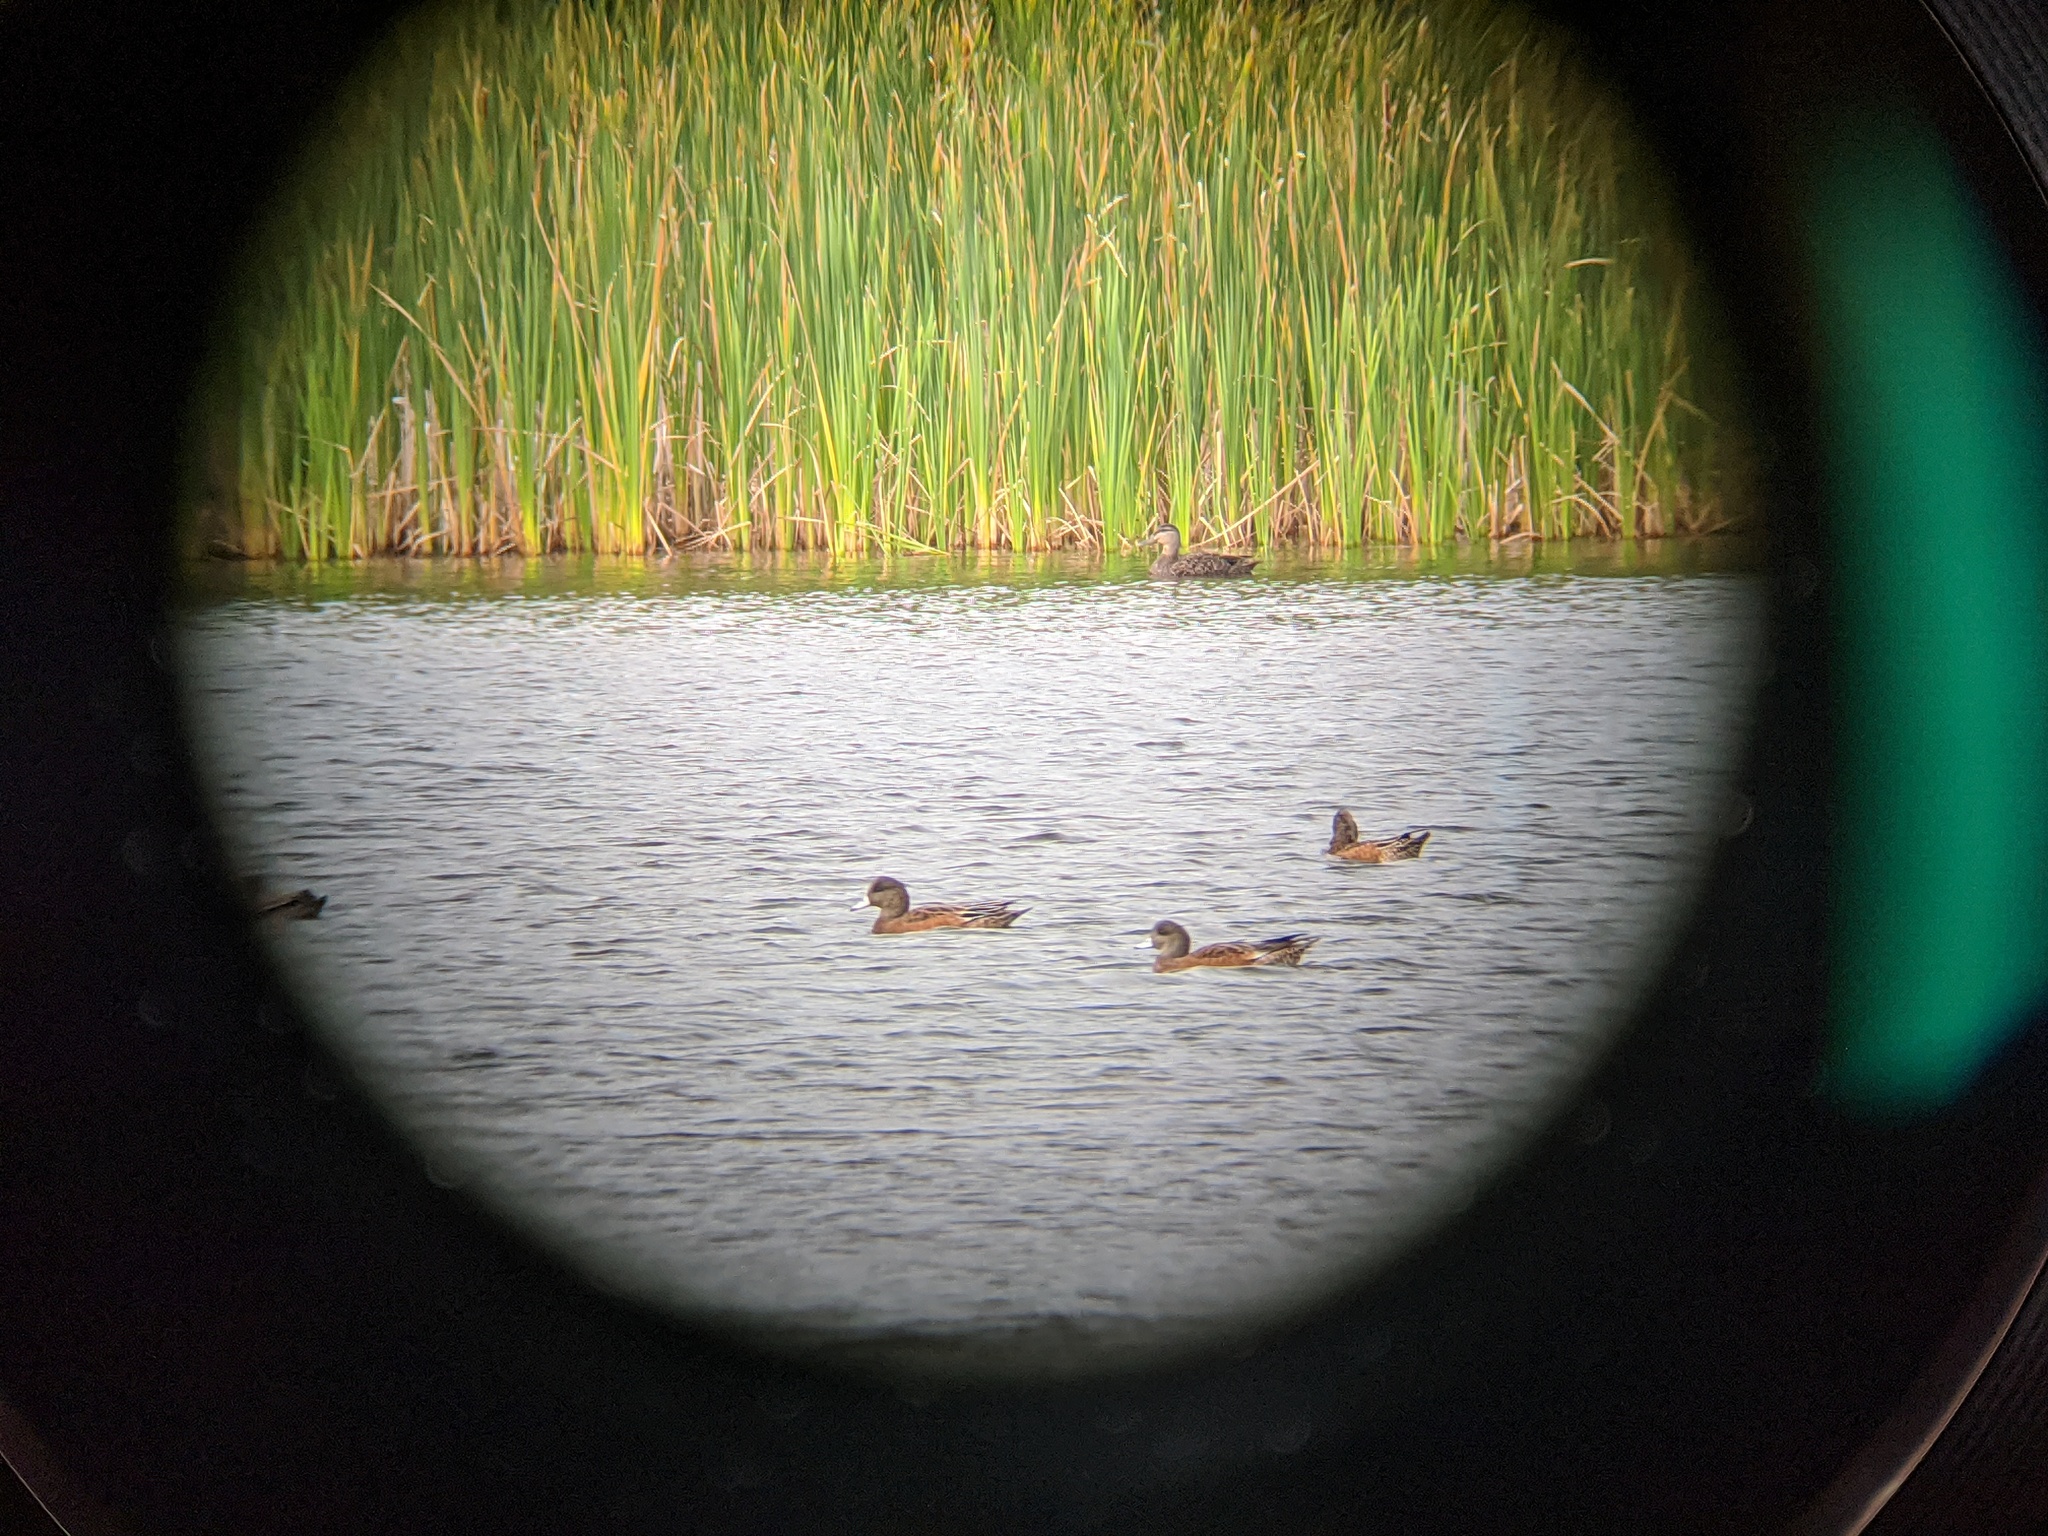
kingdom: Animalia
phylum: Chordata
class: Aves
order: Anseriformes
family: Anatidae
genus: Mareca
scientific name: Mareca americana
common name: American wigeon
